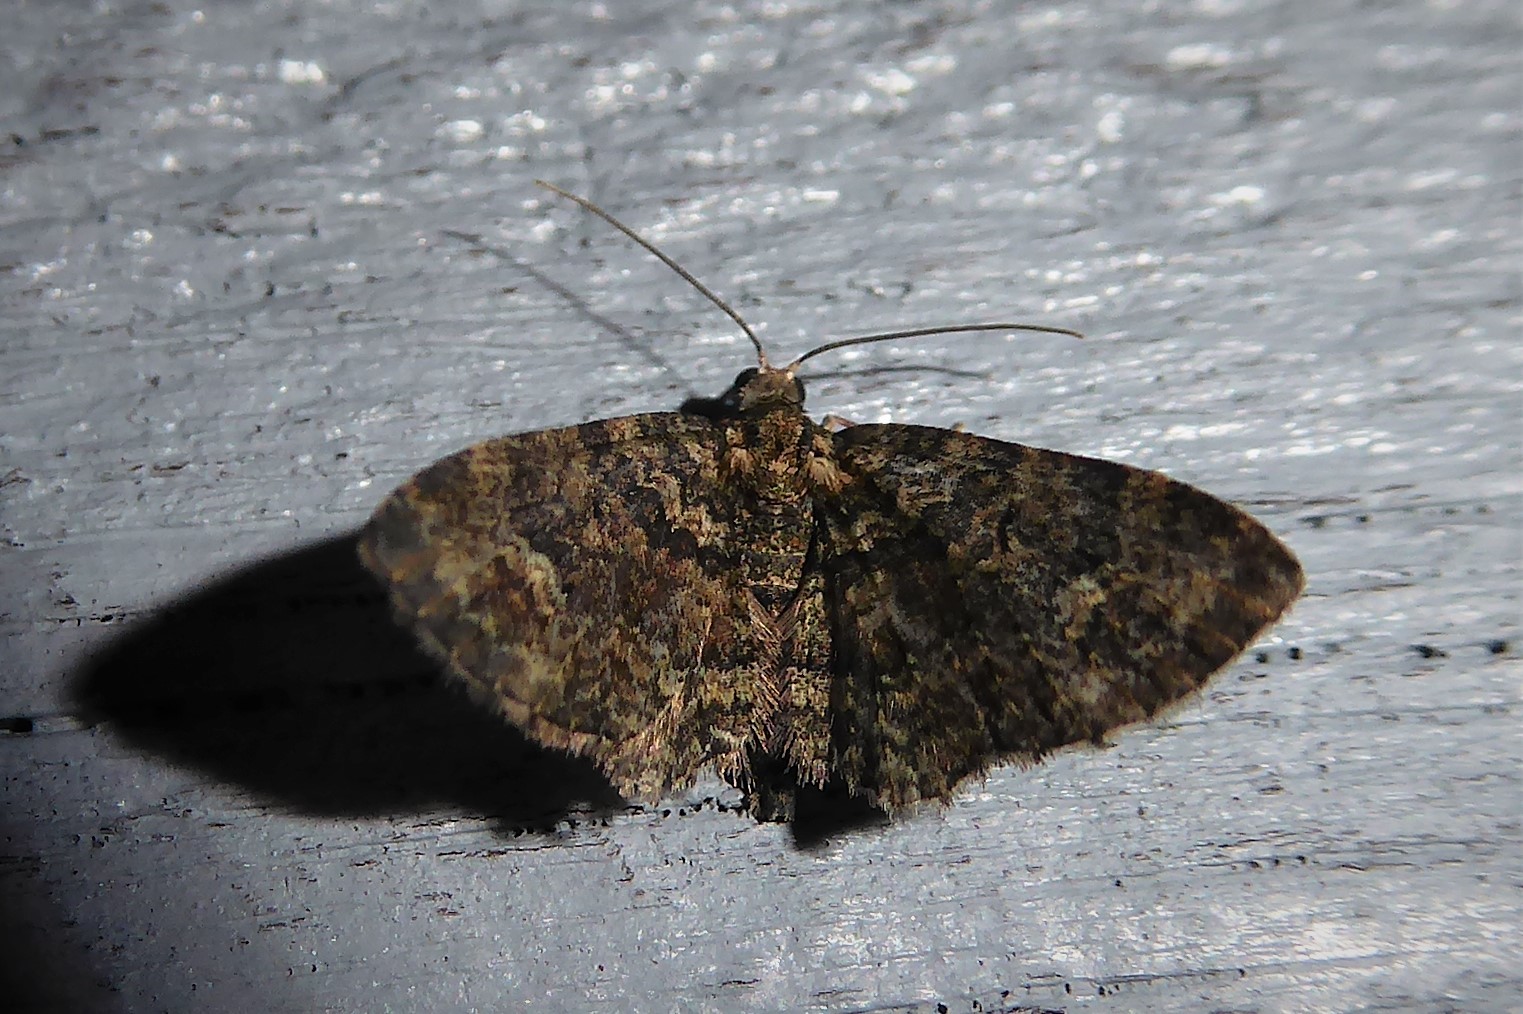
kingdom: Animalia
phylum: Arthropoda
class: Insecta
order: Lepidoptera
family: Geometridae
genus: Pasiphilodes
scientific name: Pasiphilodes testulata
